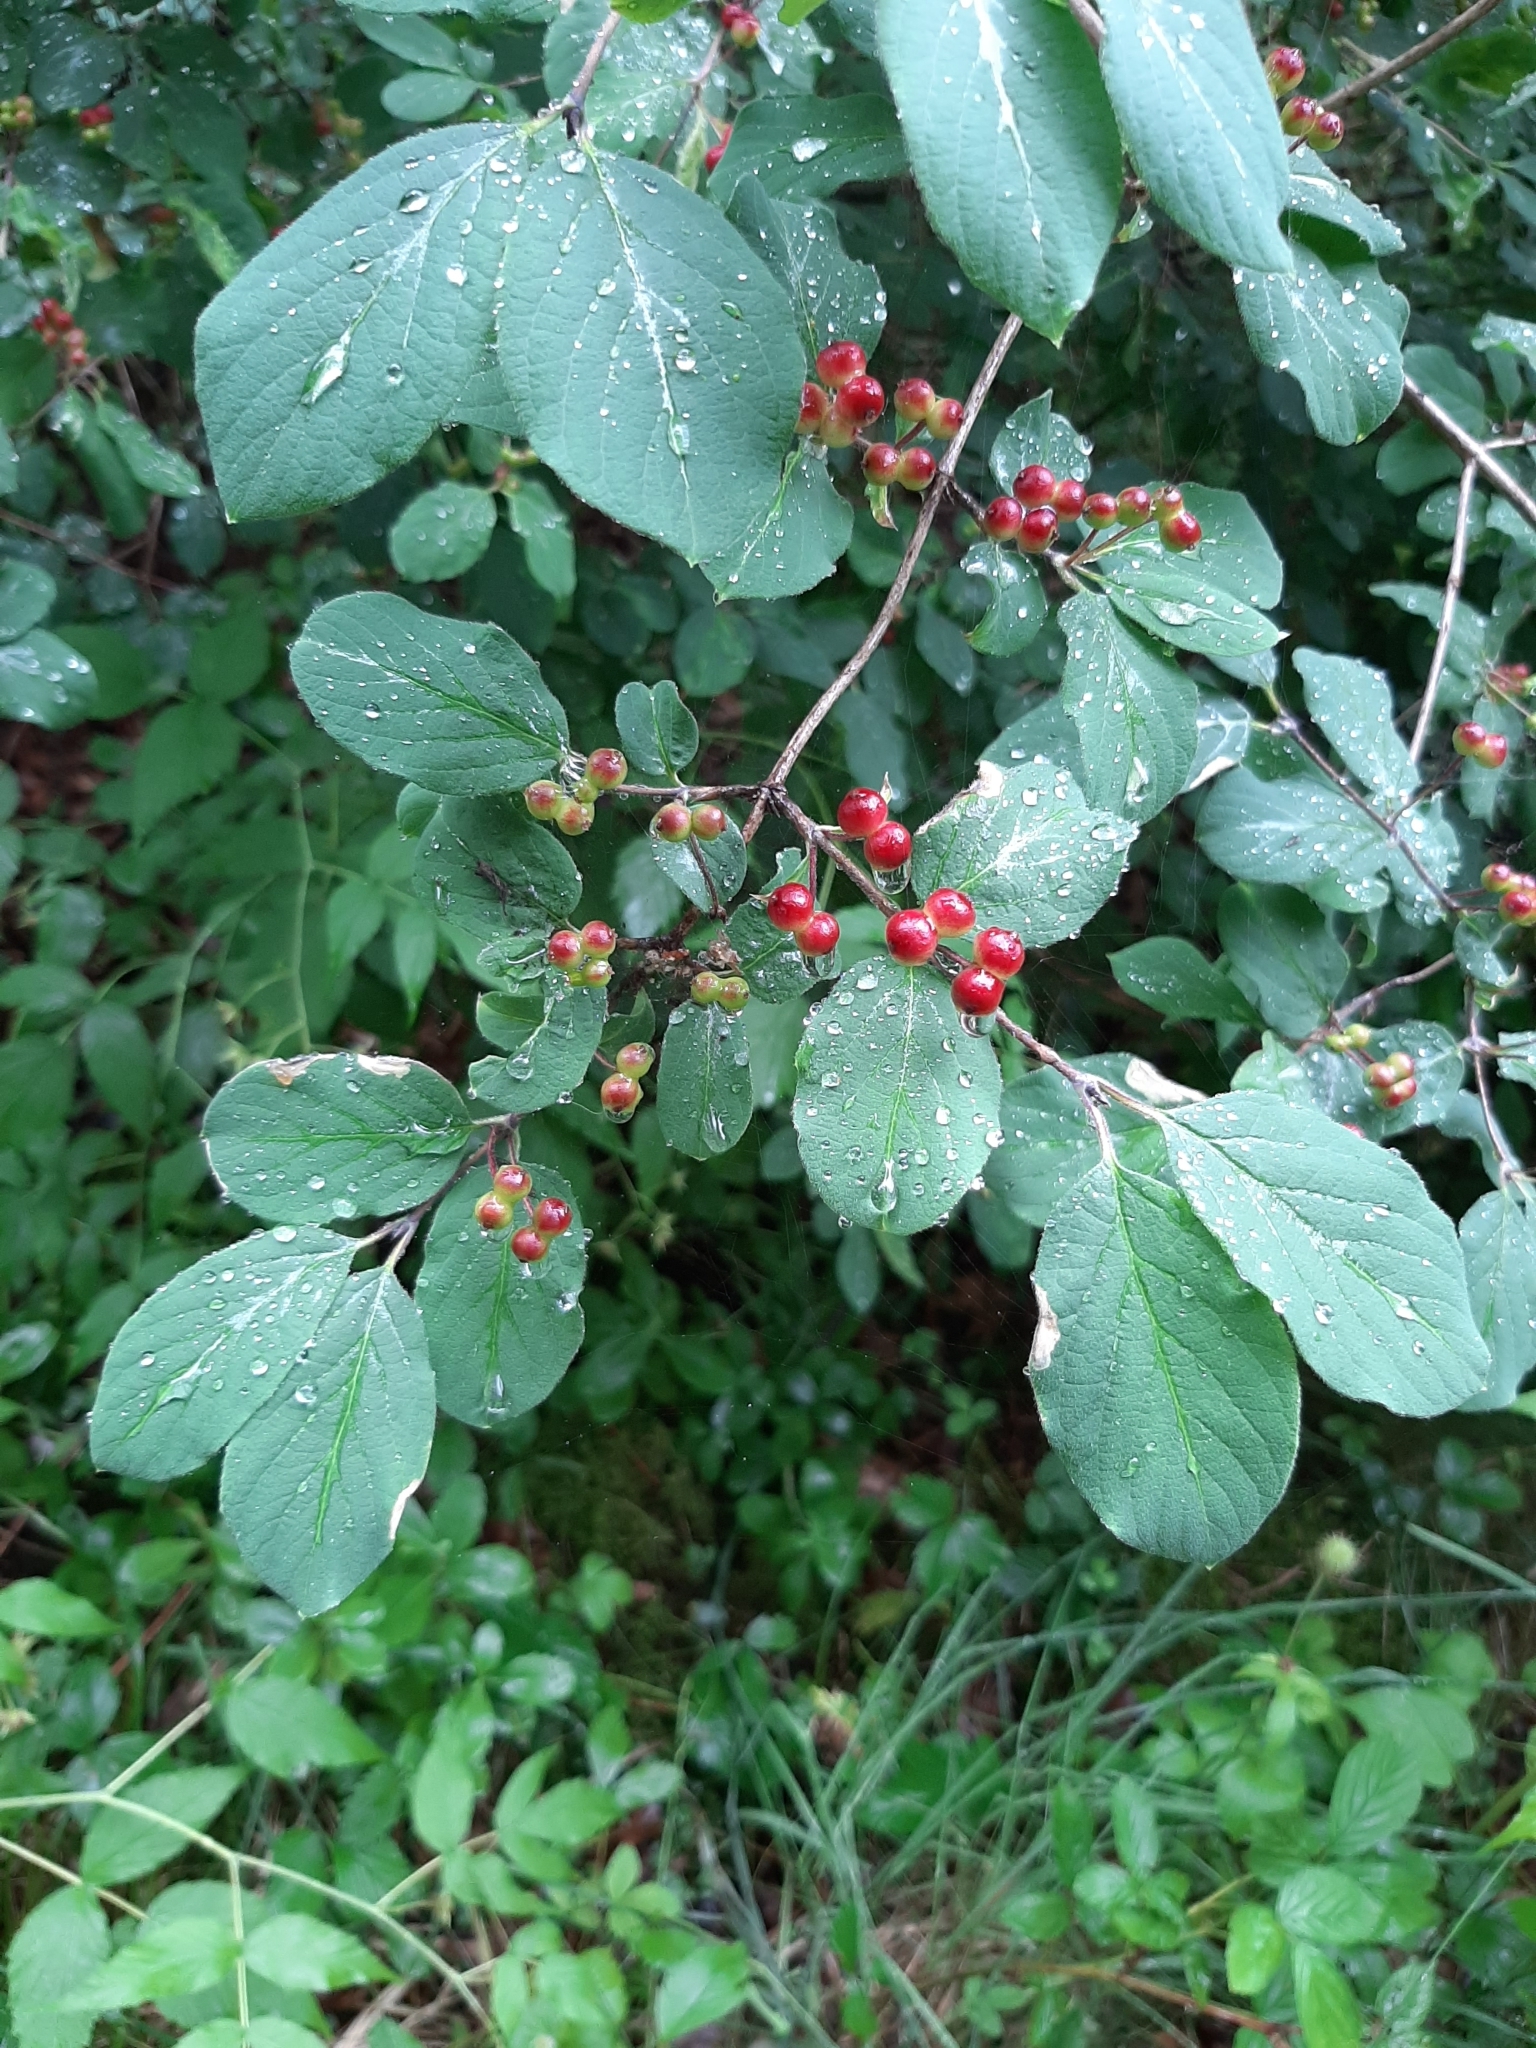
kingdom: Plantae
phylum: Tracheophyta
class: Magnoliopsida
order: Dipsacales
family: Caprifoliaceae
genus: Lonicera
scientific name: Lonicera xylosteum
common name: Fly honeysuckle
